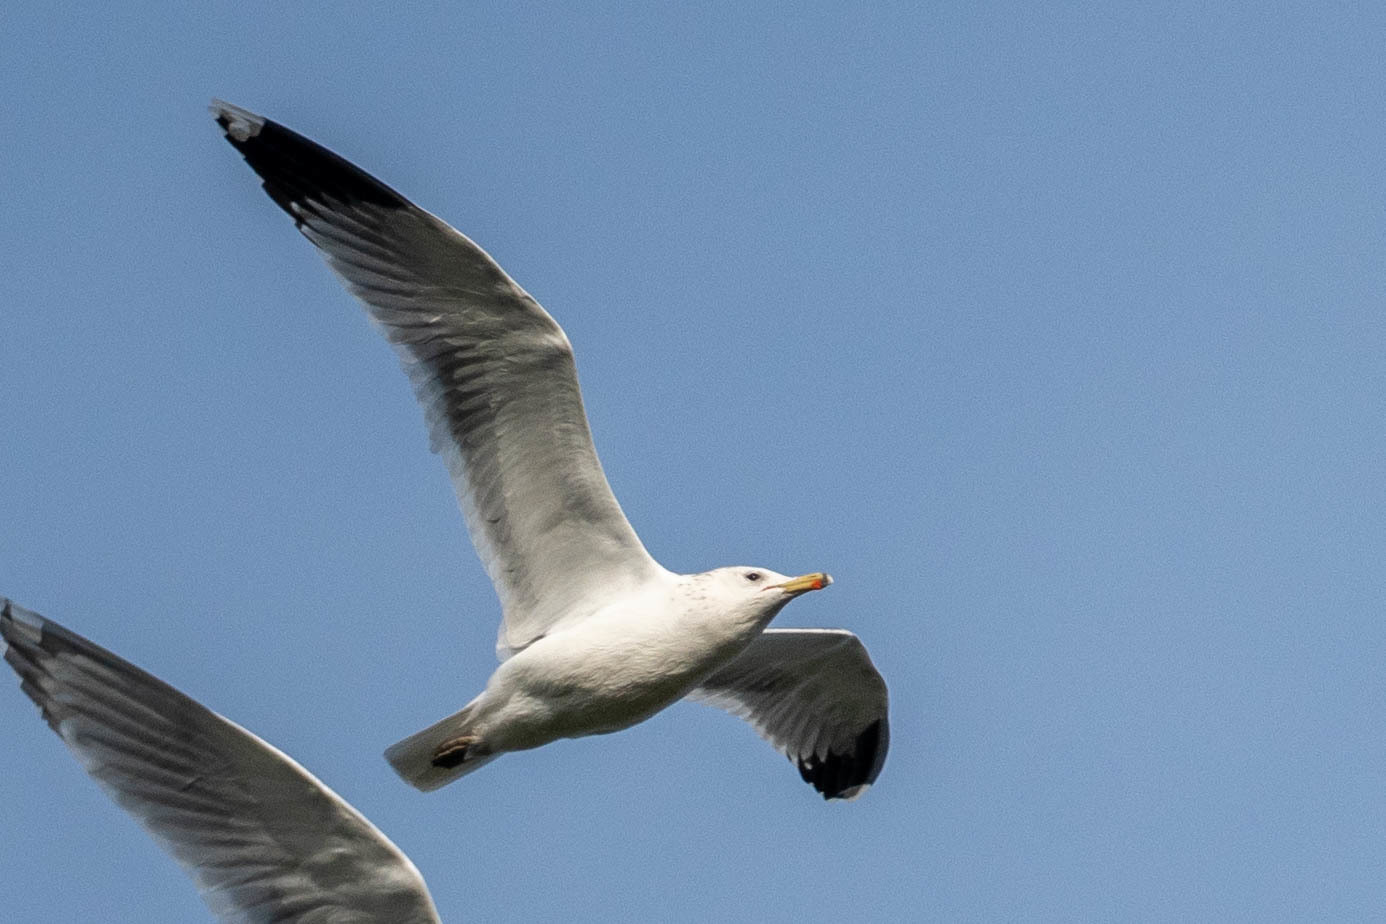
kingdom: Animalia
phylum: Chordata
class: Aves
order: Charadriiformes
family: Laridae
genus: Larus
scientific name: Larus californicus
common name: California gull
